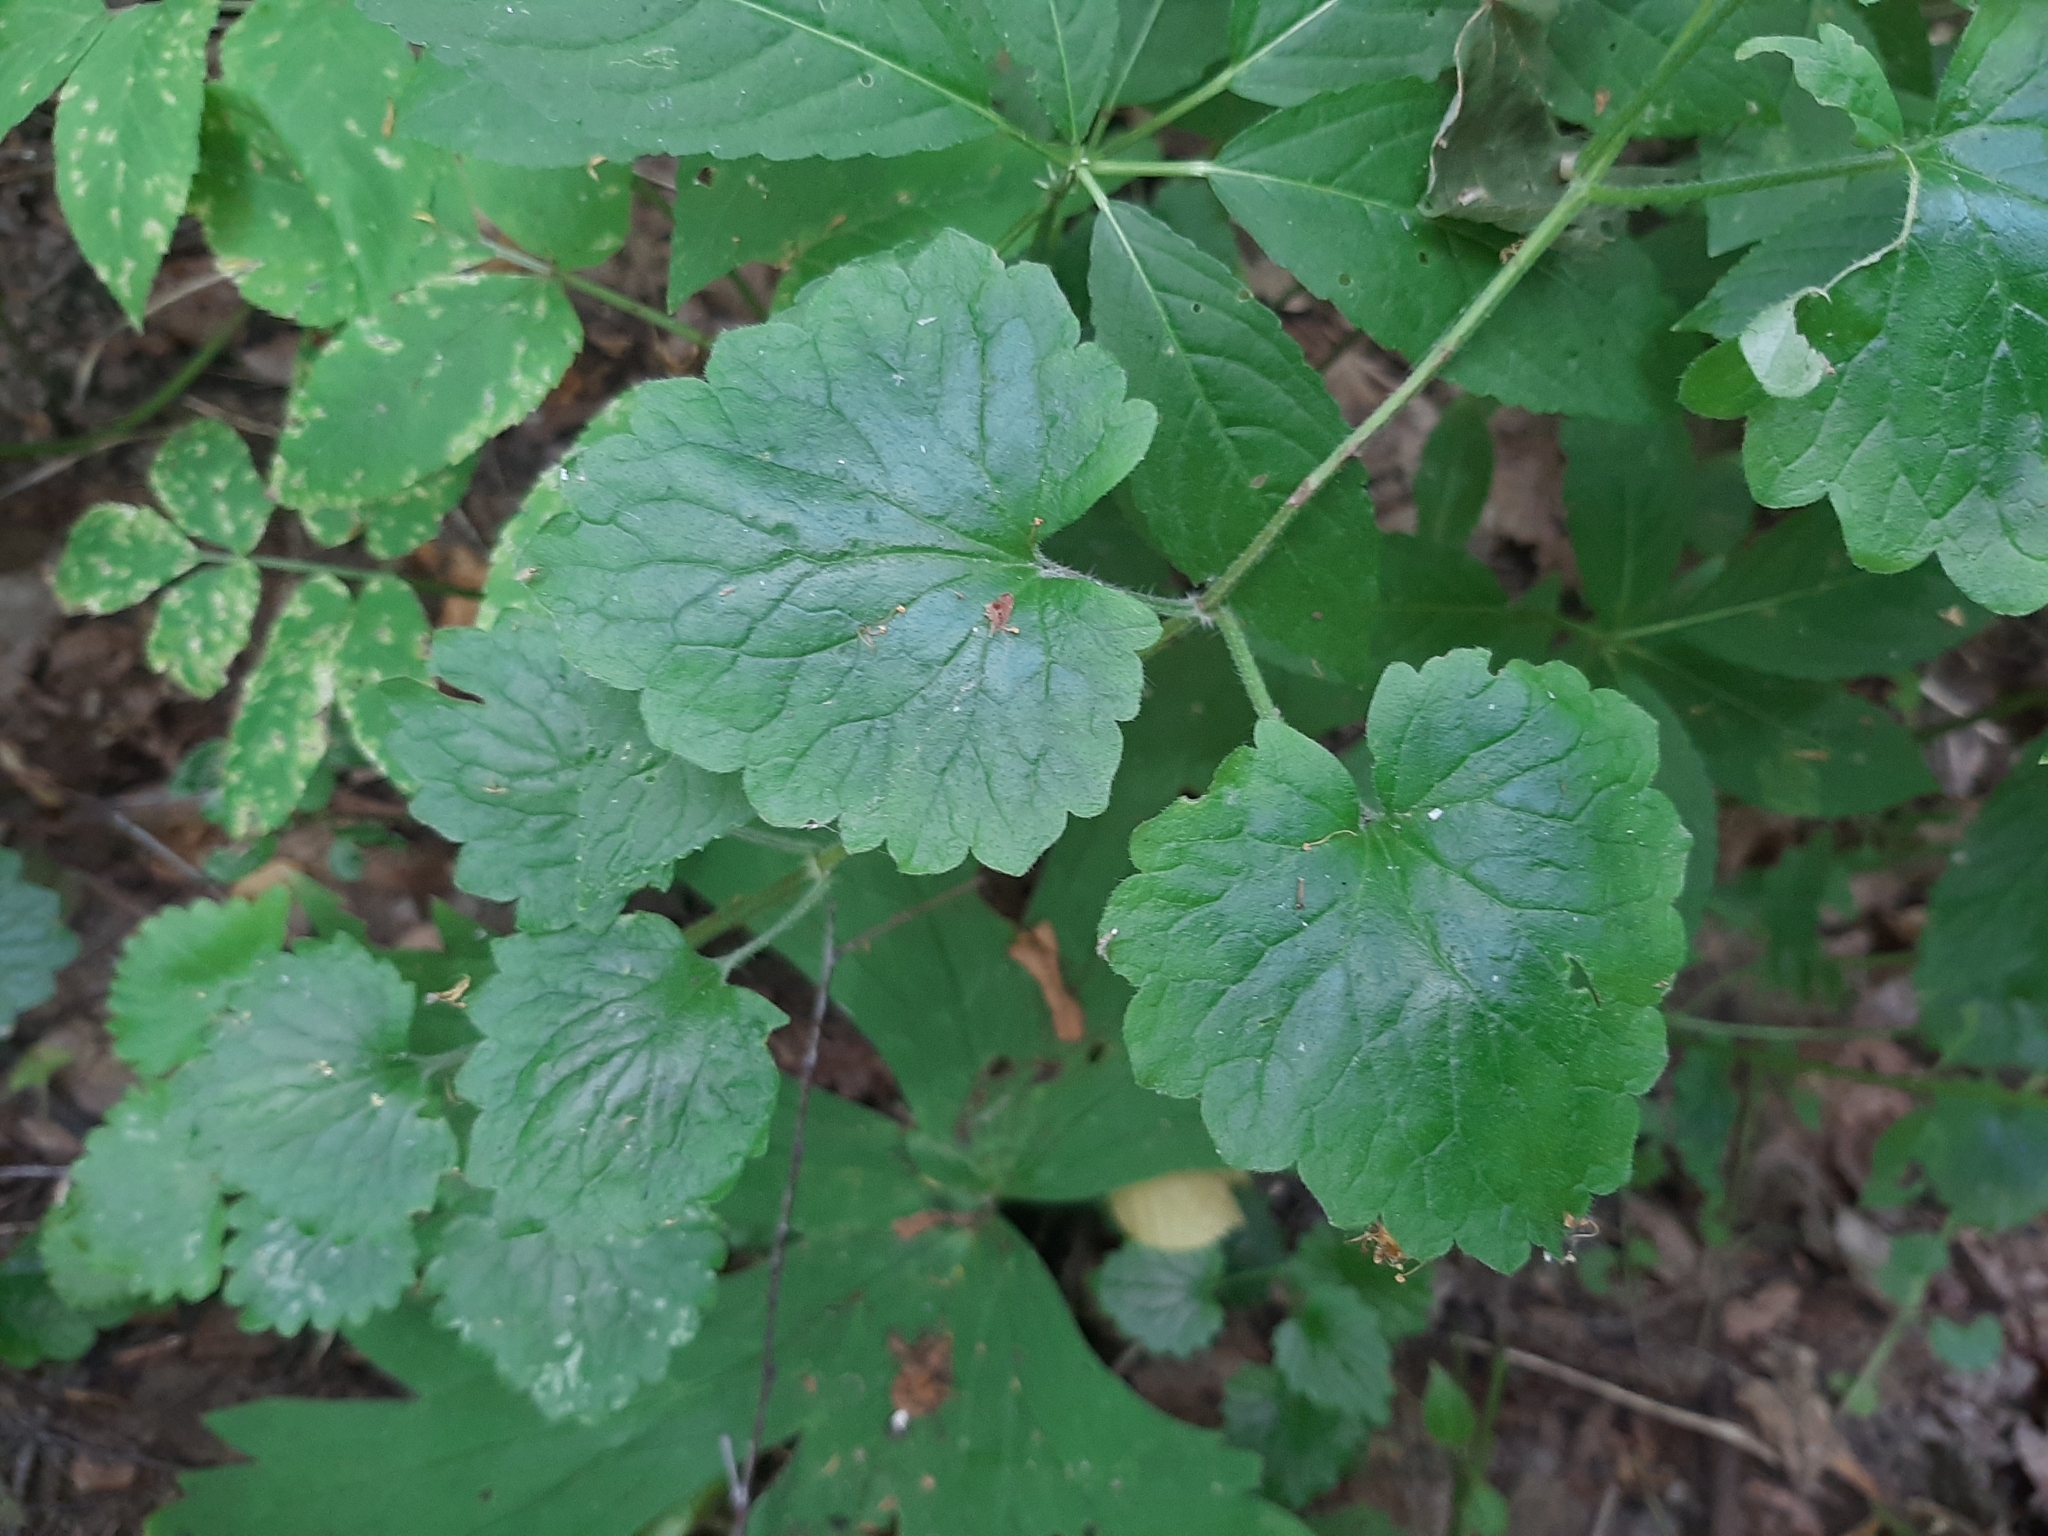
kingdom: Plantae
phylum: Tracheophyta
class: Magnoliopsida
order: Lamiales
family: Lamiaceae
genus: Glechoma
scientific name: Glechoma hederacea
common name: Ground ivy
